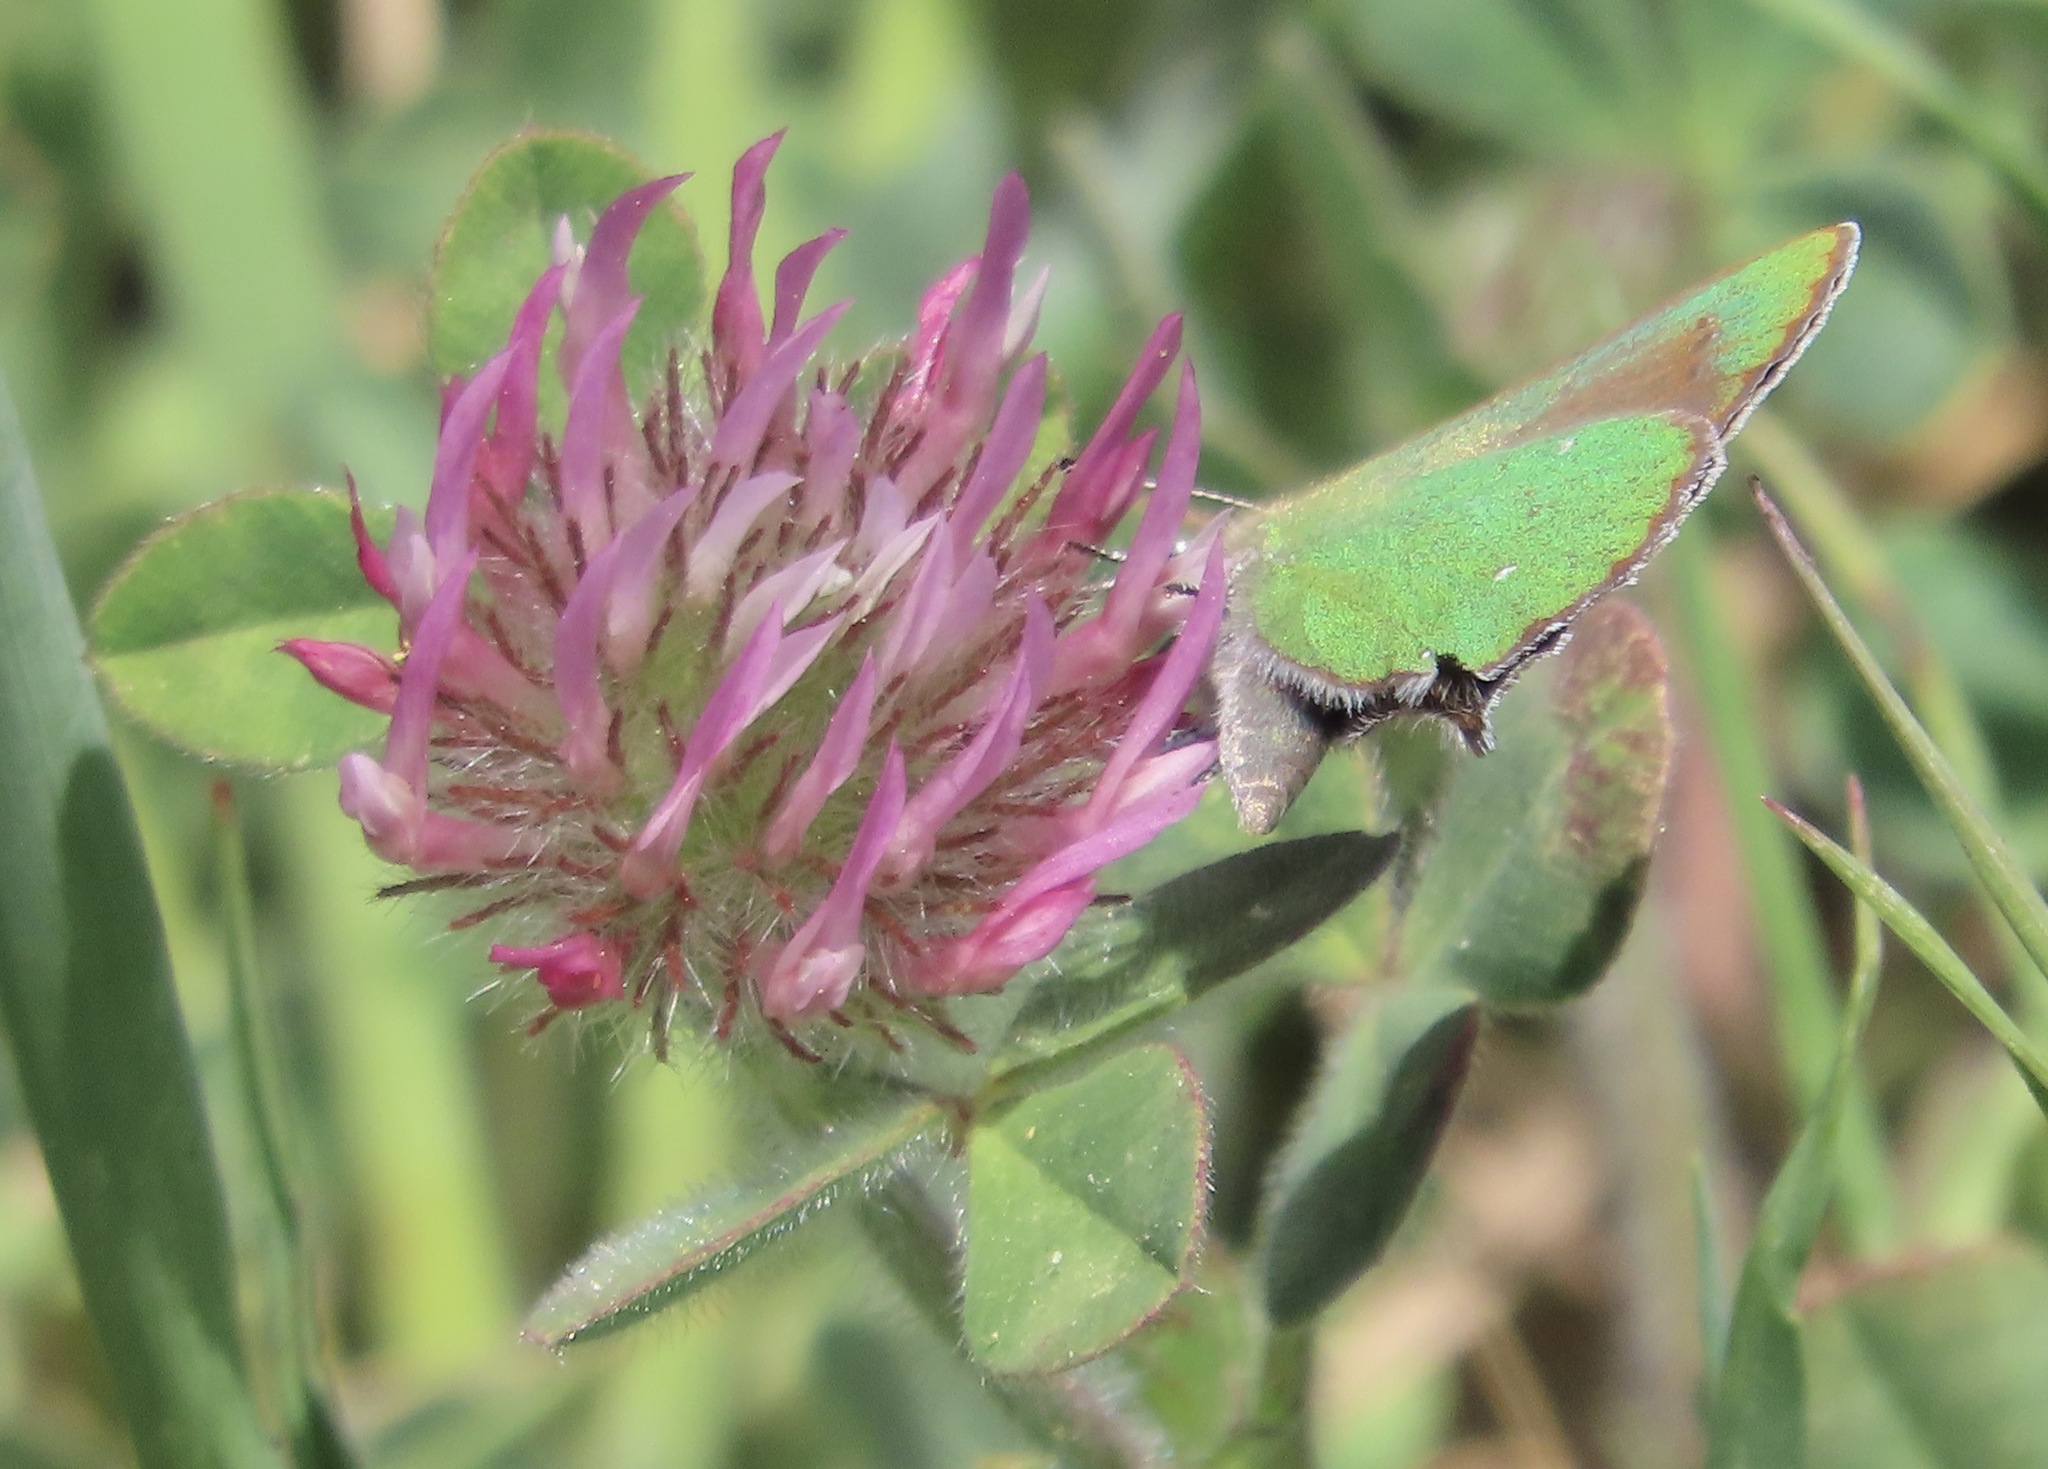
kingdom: Animalia
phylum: Arthropoda
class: Insecta
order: Lepidoptera
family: Lycaenidae
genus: Callophrys
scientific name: Callophrys dumetorum
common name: Bramble hairstreak
